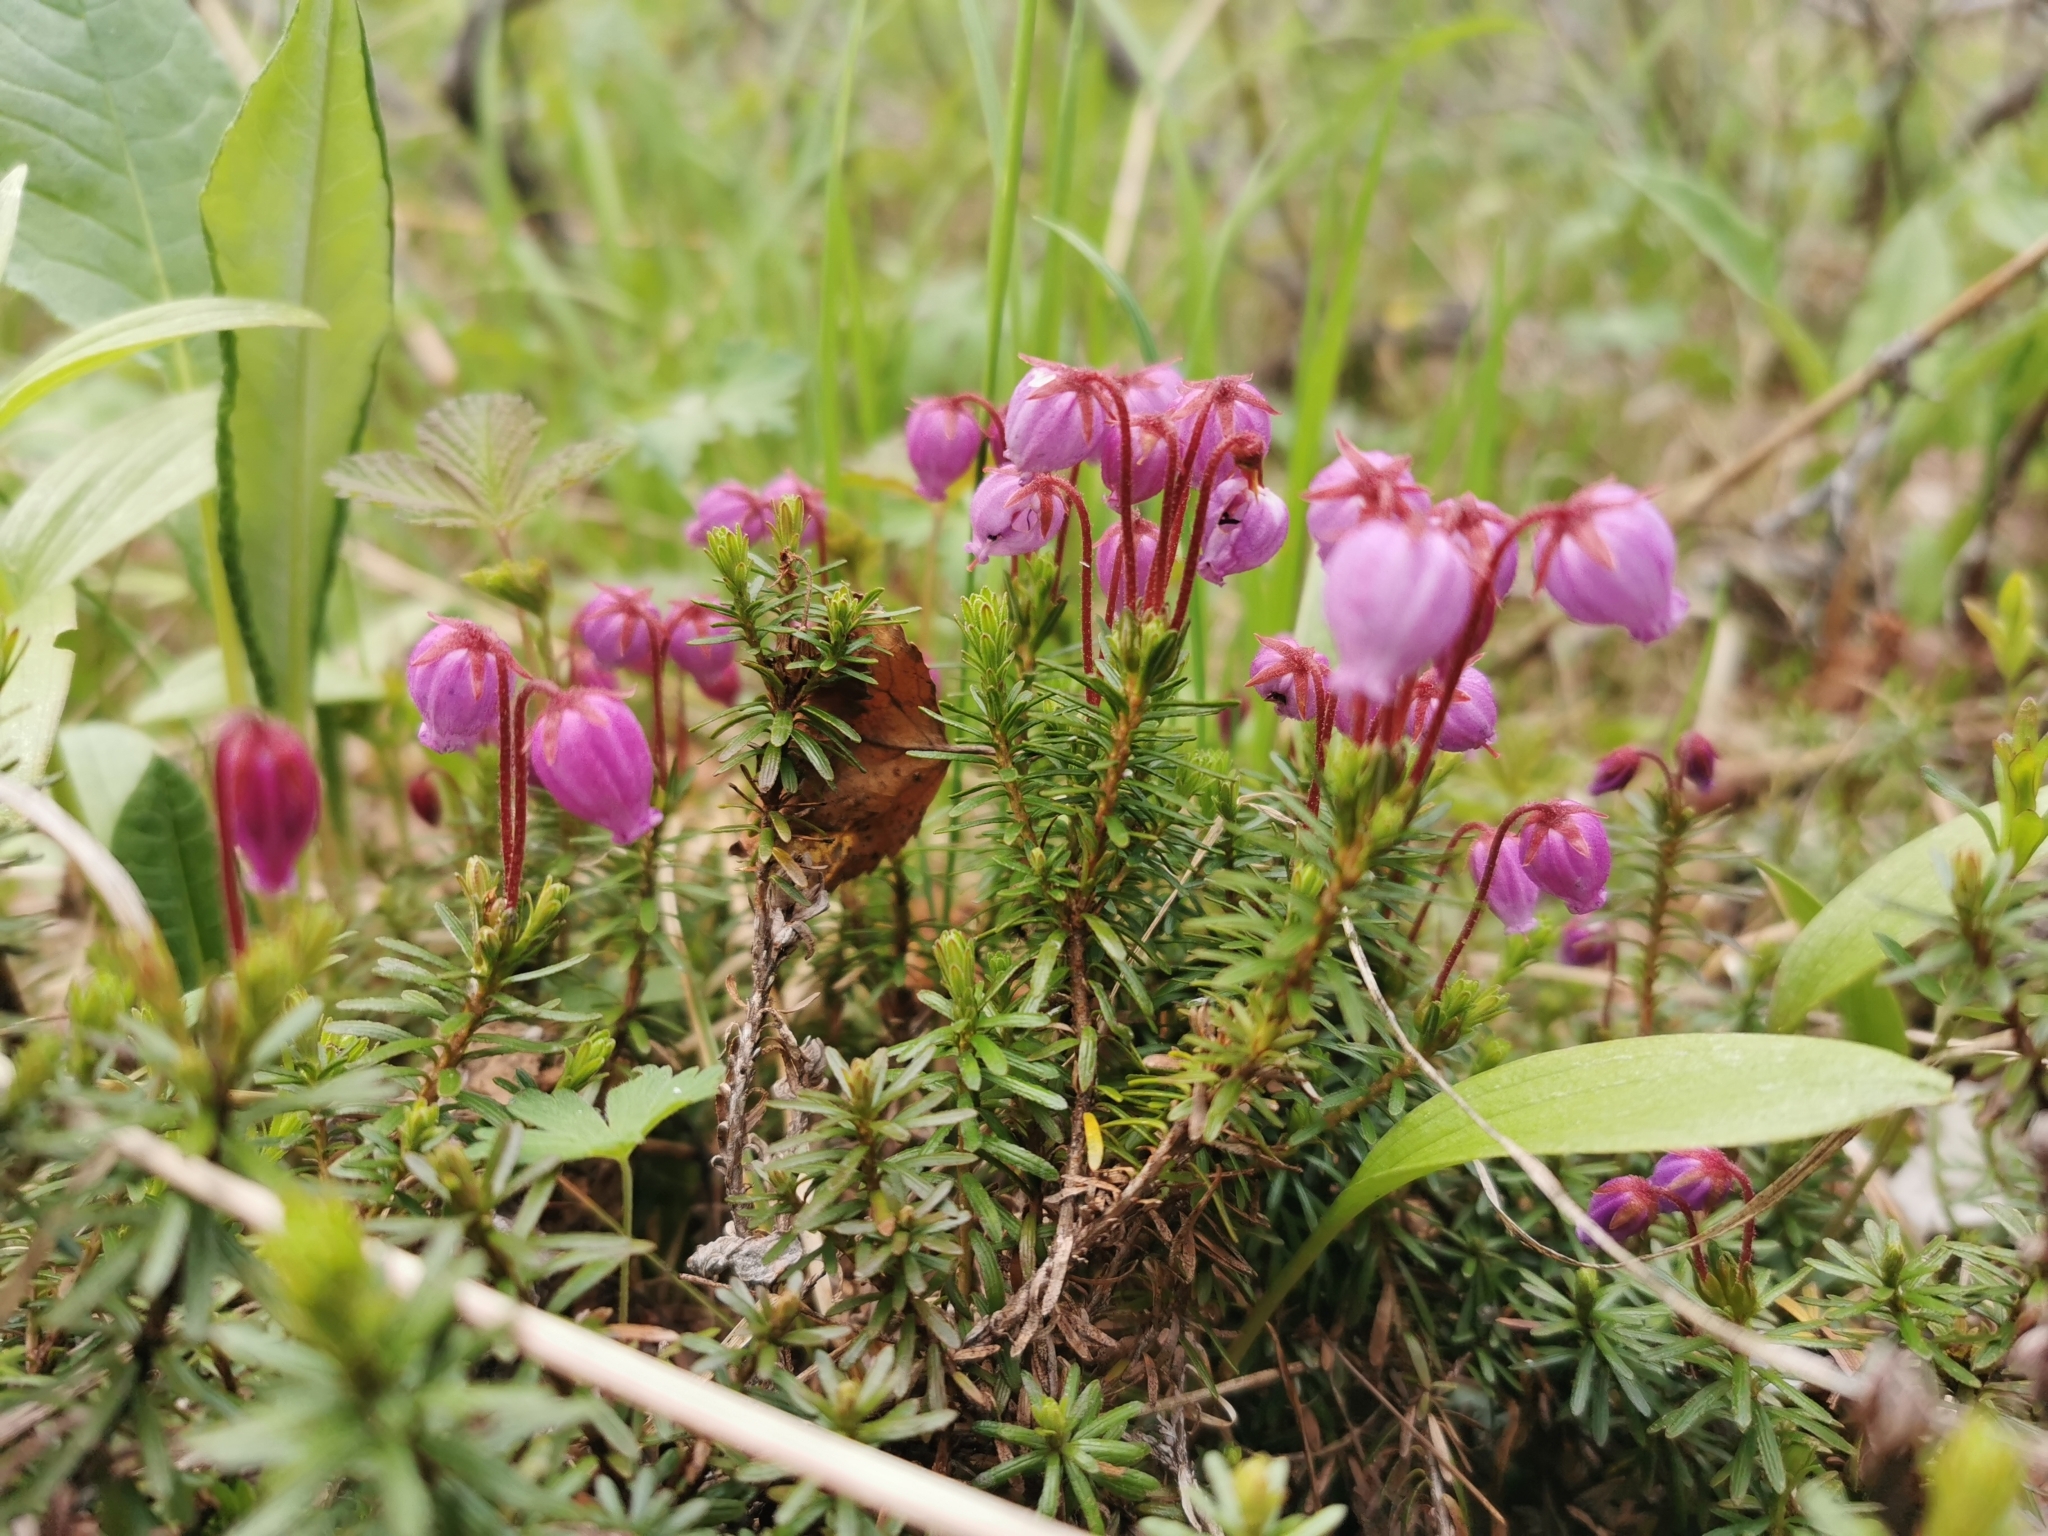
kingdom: Plantae
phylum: Tracheophyta
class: Magnoliopsida
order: Ericales
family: Ericaceae
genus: Phyllodoce
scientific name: Phyllodoce caerulea
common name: Blue heath
